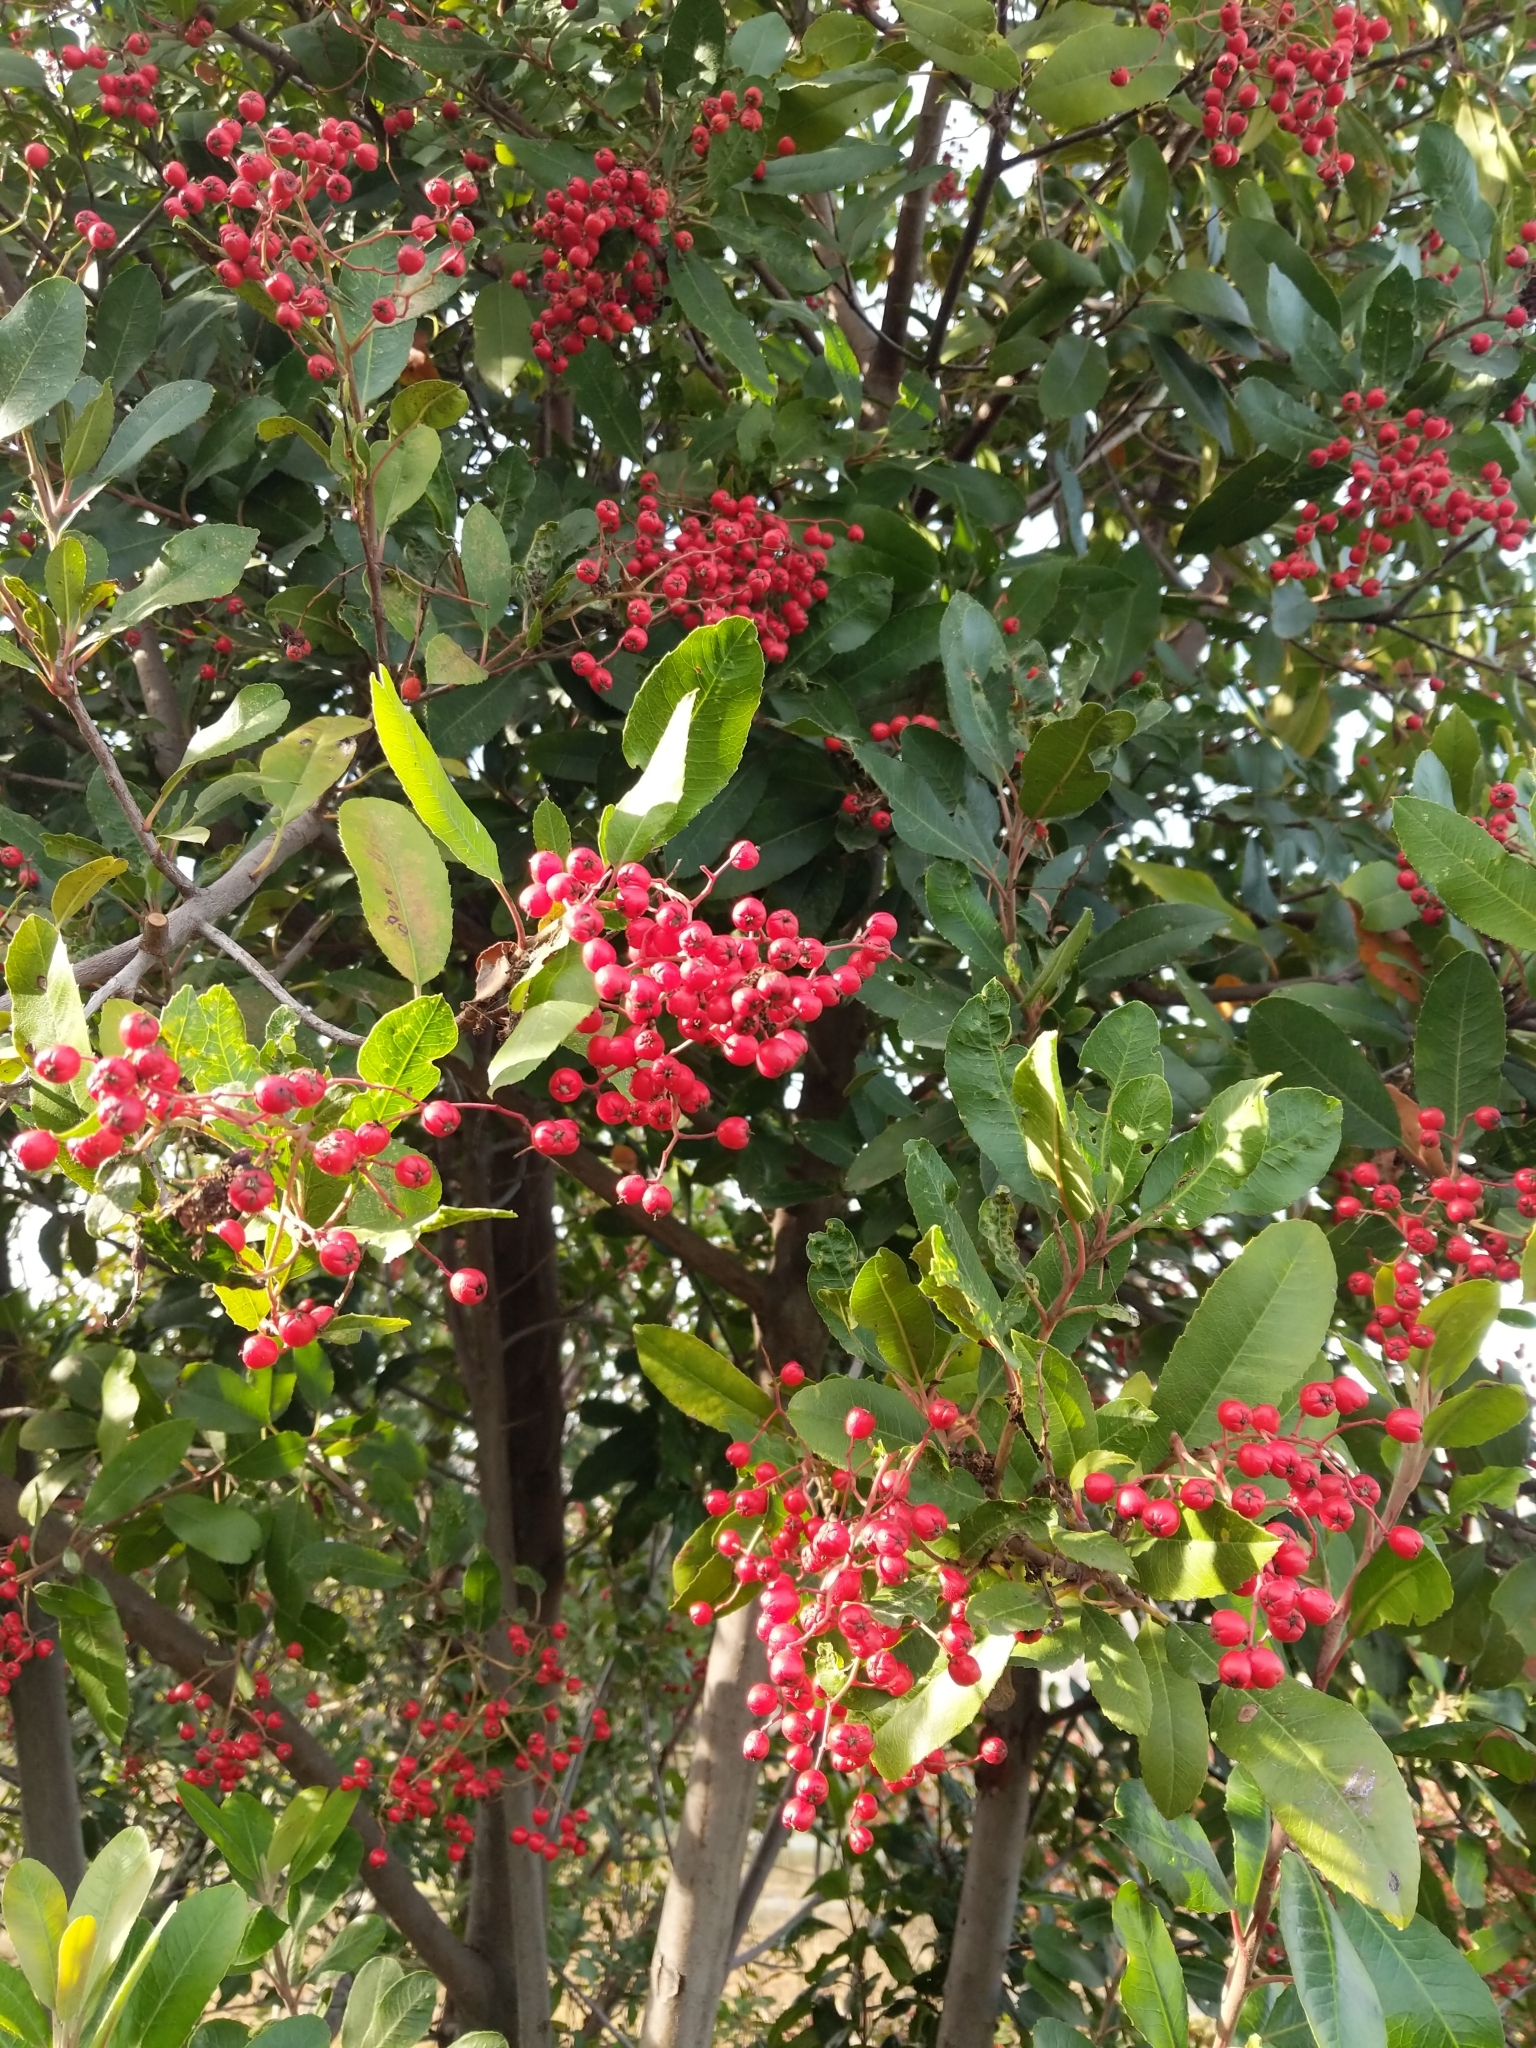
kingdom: Plantae
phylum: Tracheophyta
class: Magnoliopsida
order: Rosales
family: Rosaceae
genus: Heteromeles
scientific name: Heteromeles arbutifolia
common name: California-holly
